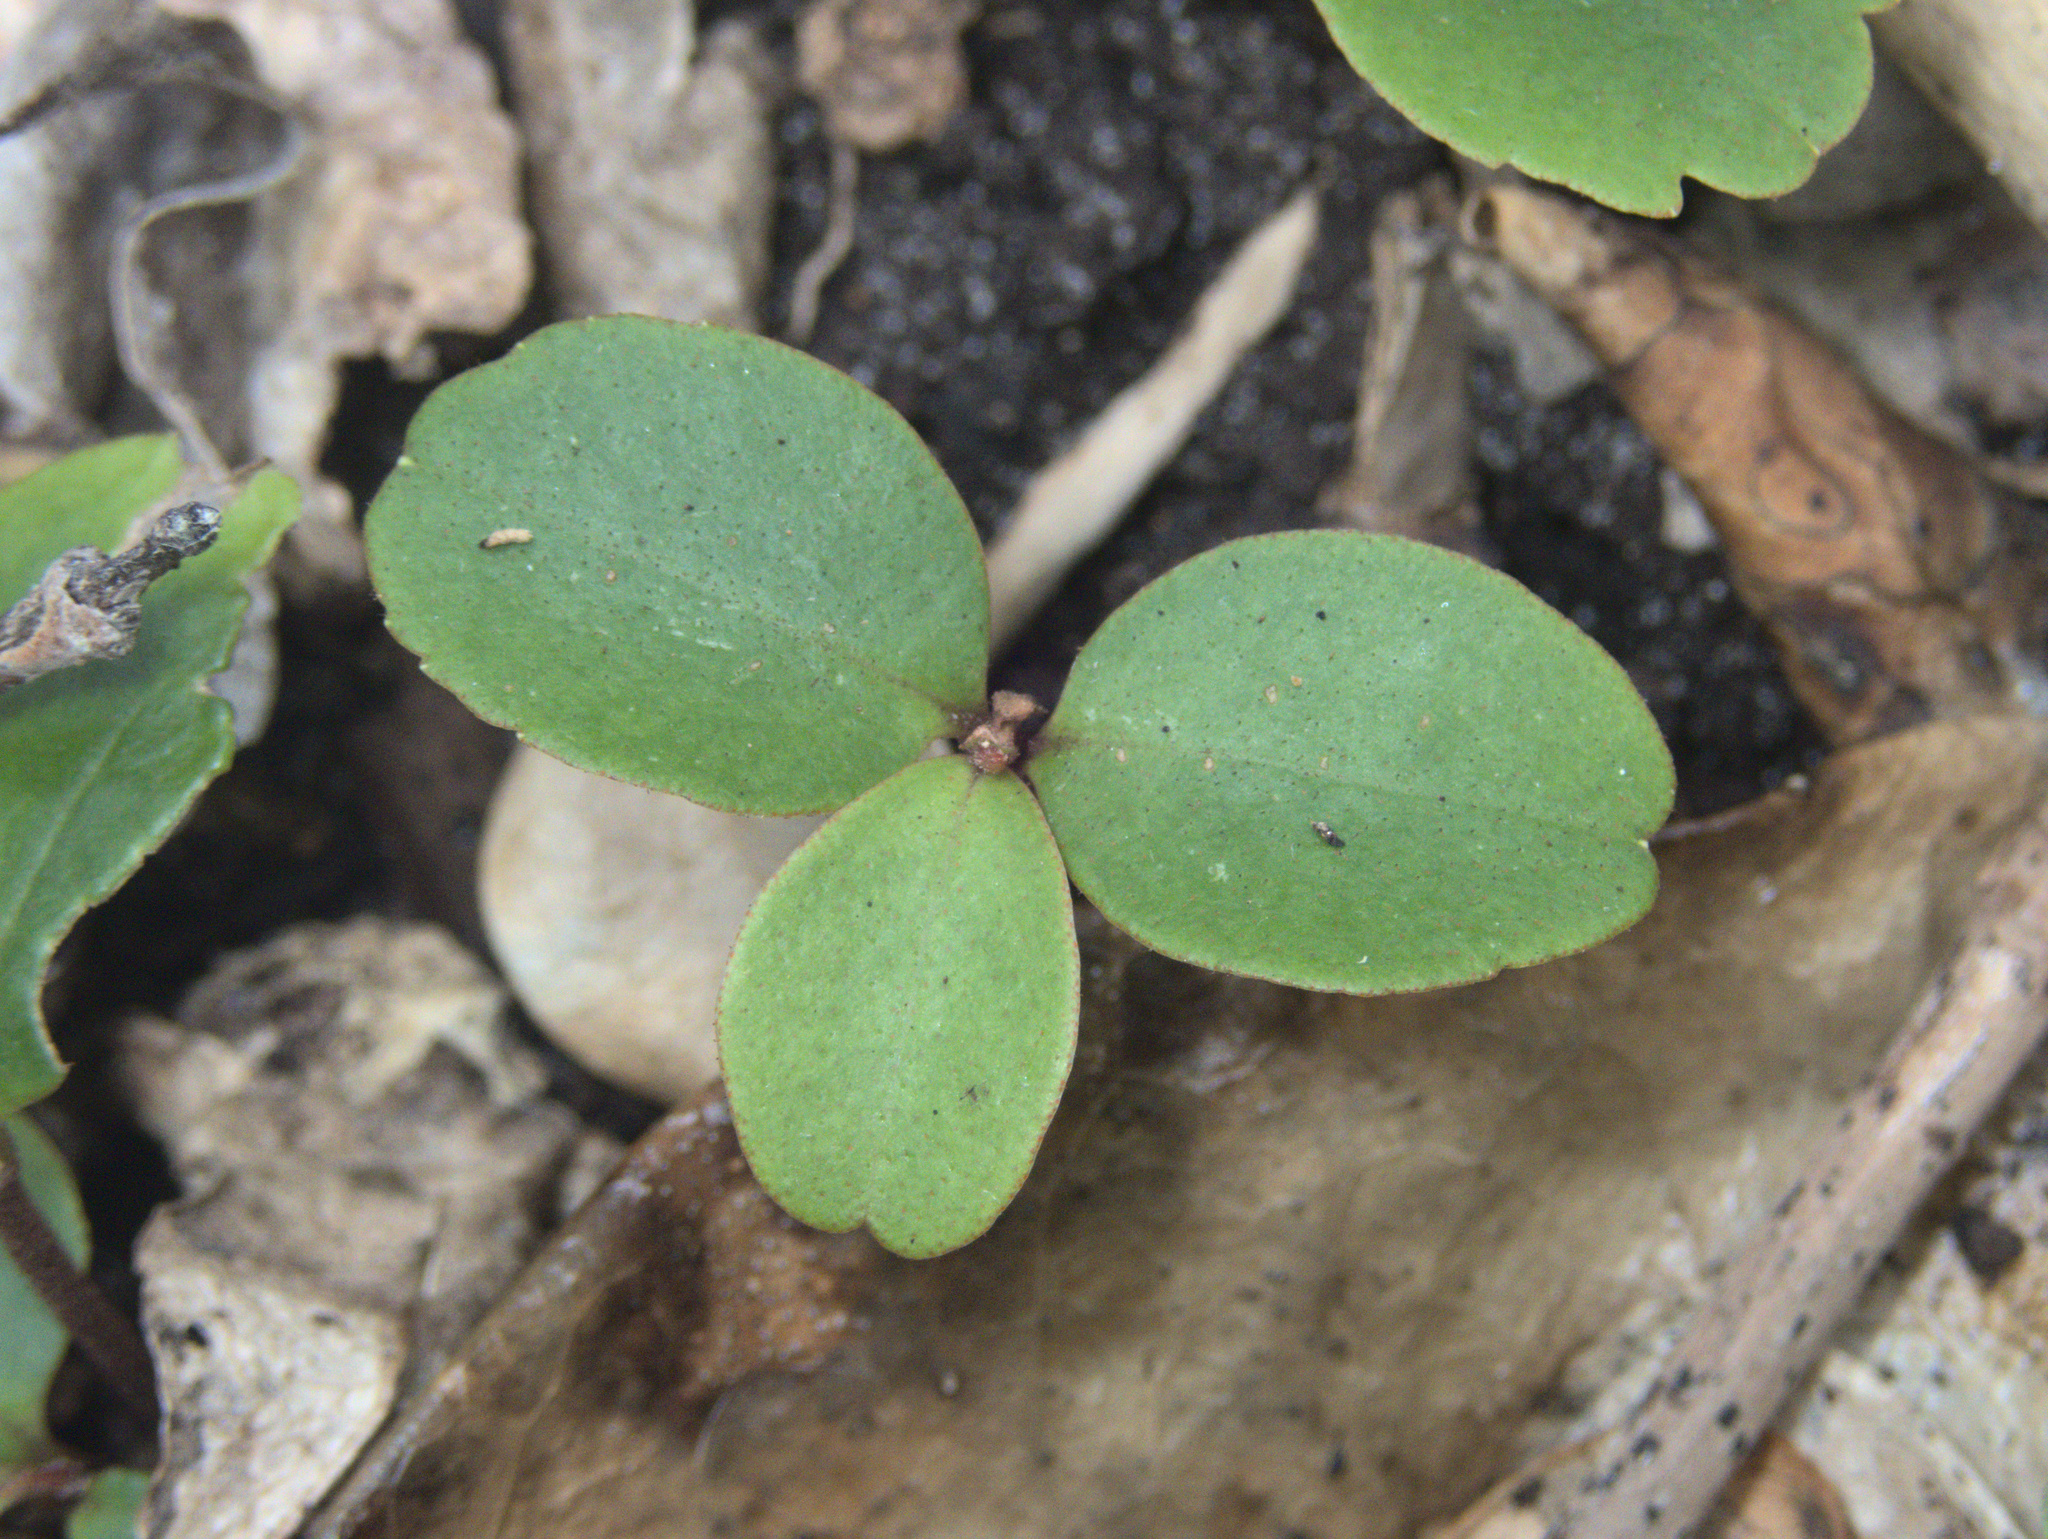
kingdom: Plantae
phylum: Tracheophyta
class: Magnoliopsida
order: Ericales
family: Primulaceae
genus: Myrsine
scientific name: Myrsine chathamica
